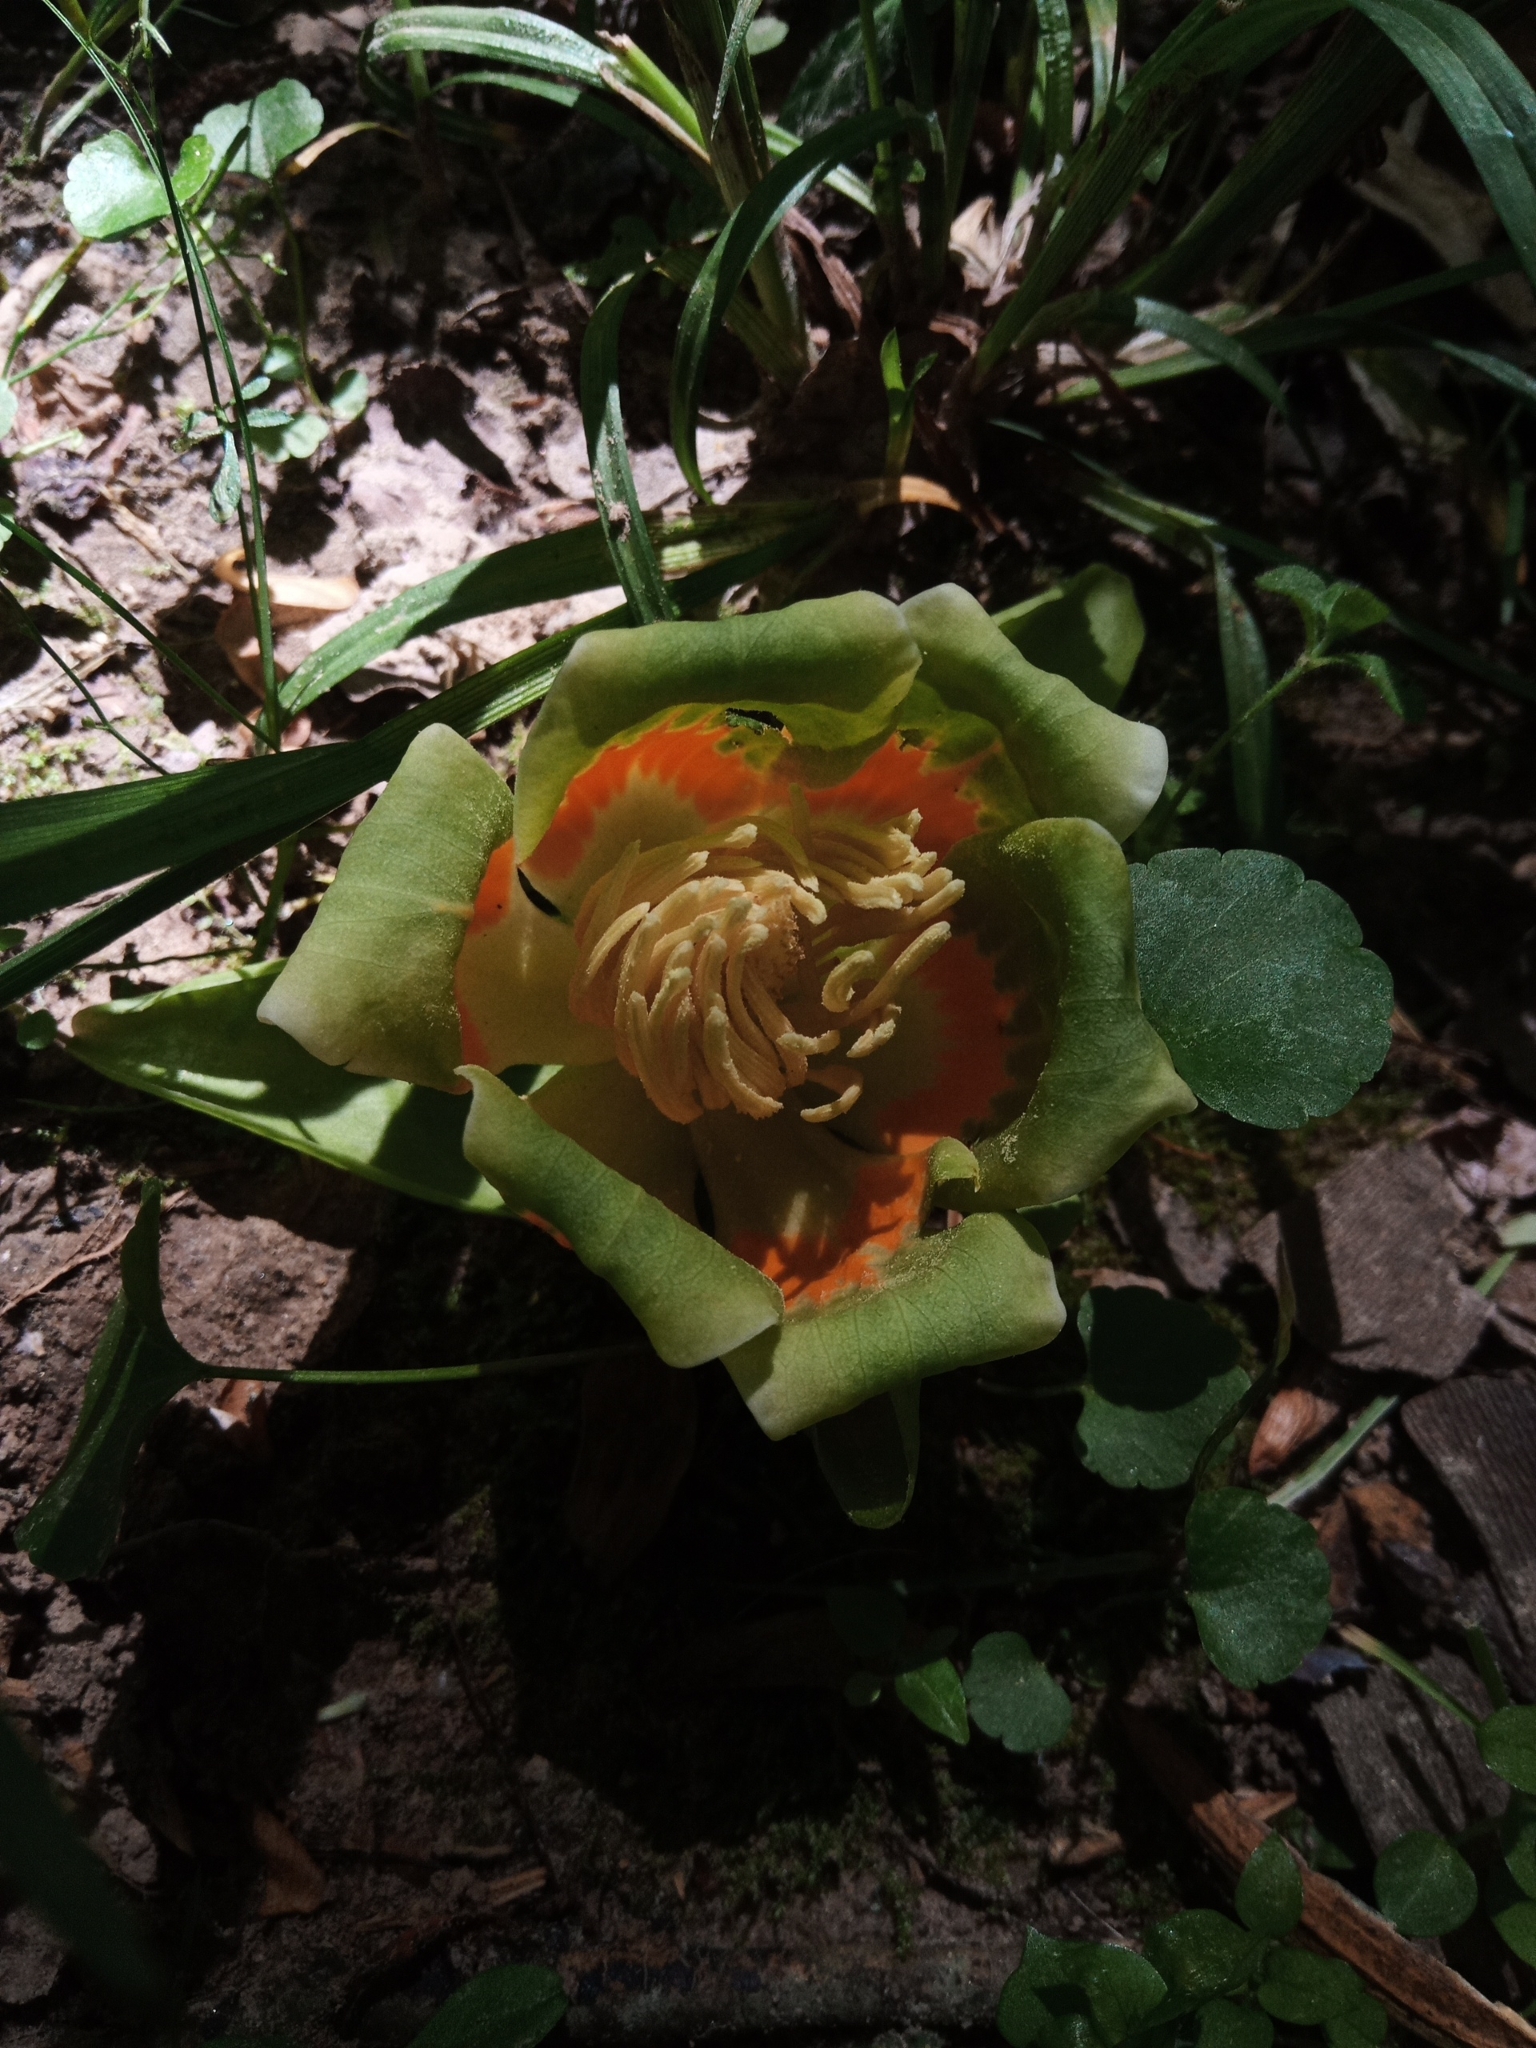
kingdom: Plantae
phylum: Tracheophyta
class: Magnoliopsida
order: Magnoliales
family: Magnoliaceae
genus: Liriodendron
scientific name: Liriodendron tulipifera
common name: Tulip tree
